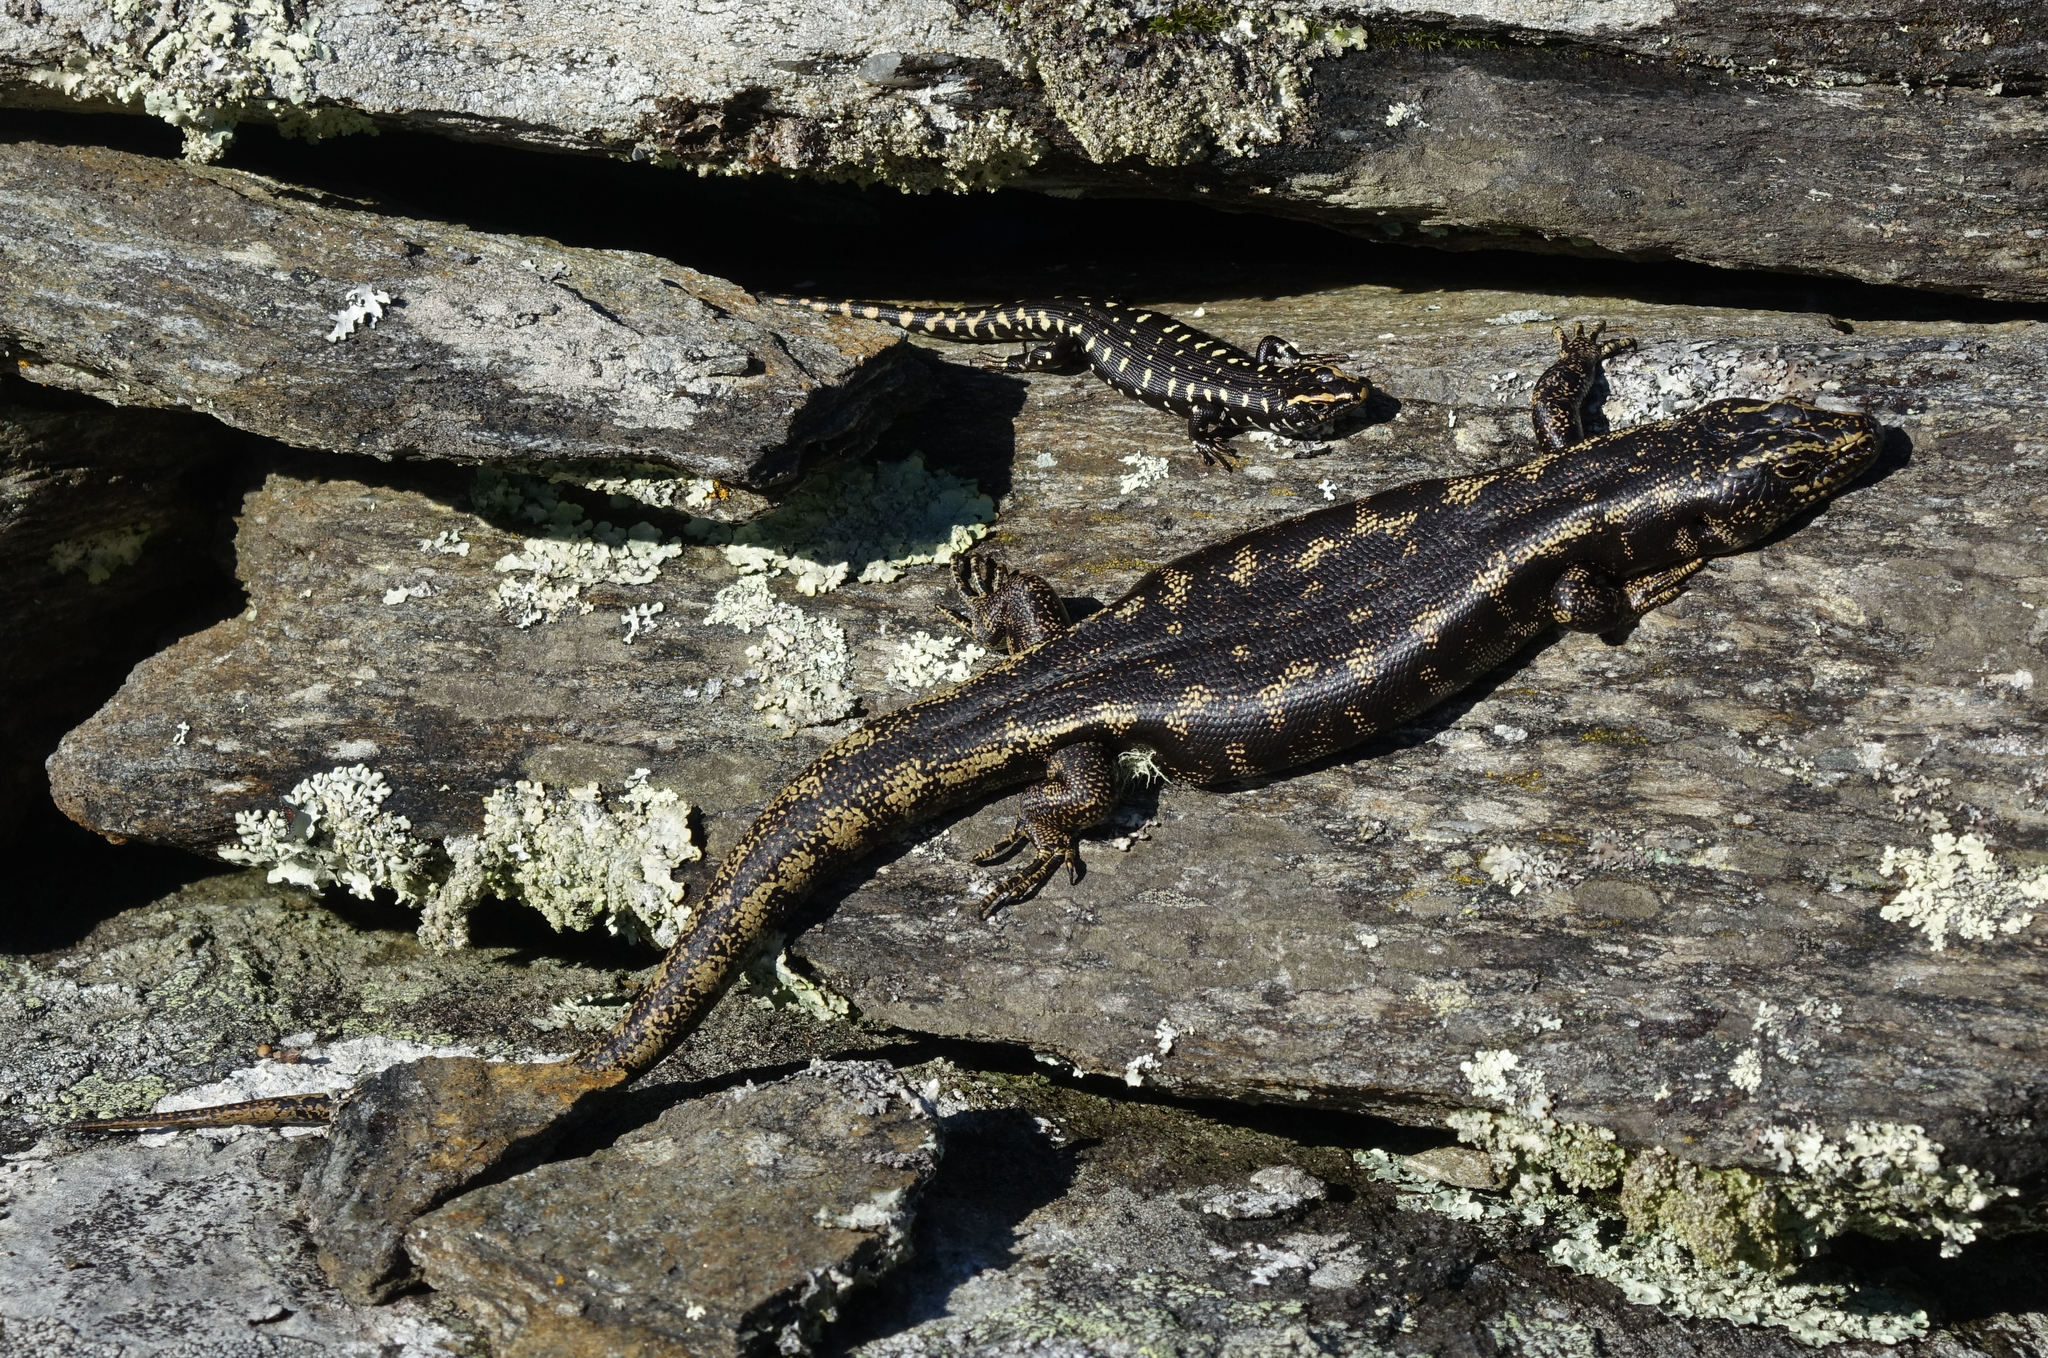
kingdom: Animalia
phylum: Chordata
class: Squamata
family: Scincidae
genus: Oligosoma
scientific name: Oligosoma otagense
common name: Otago skink
